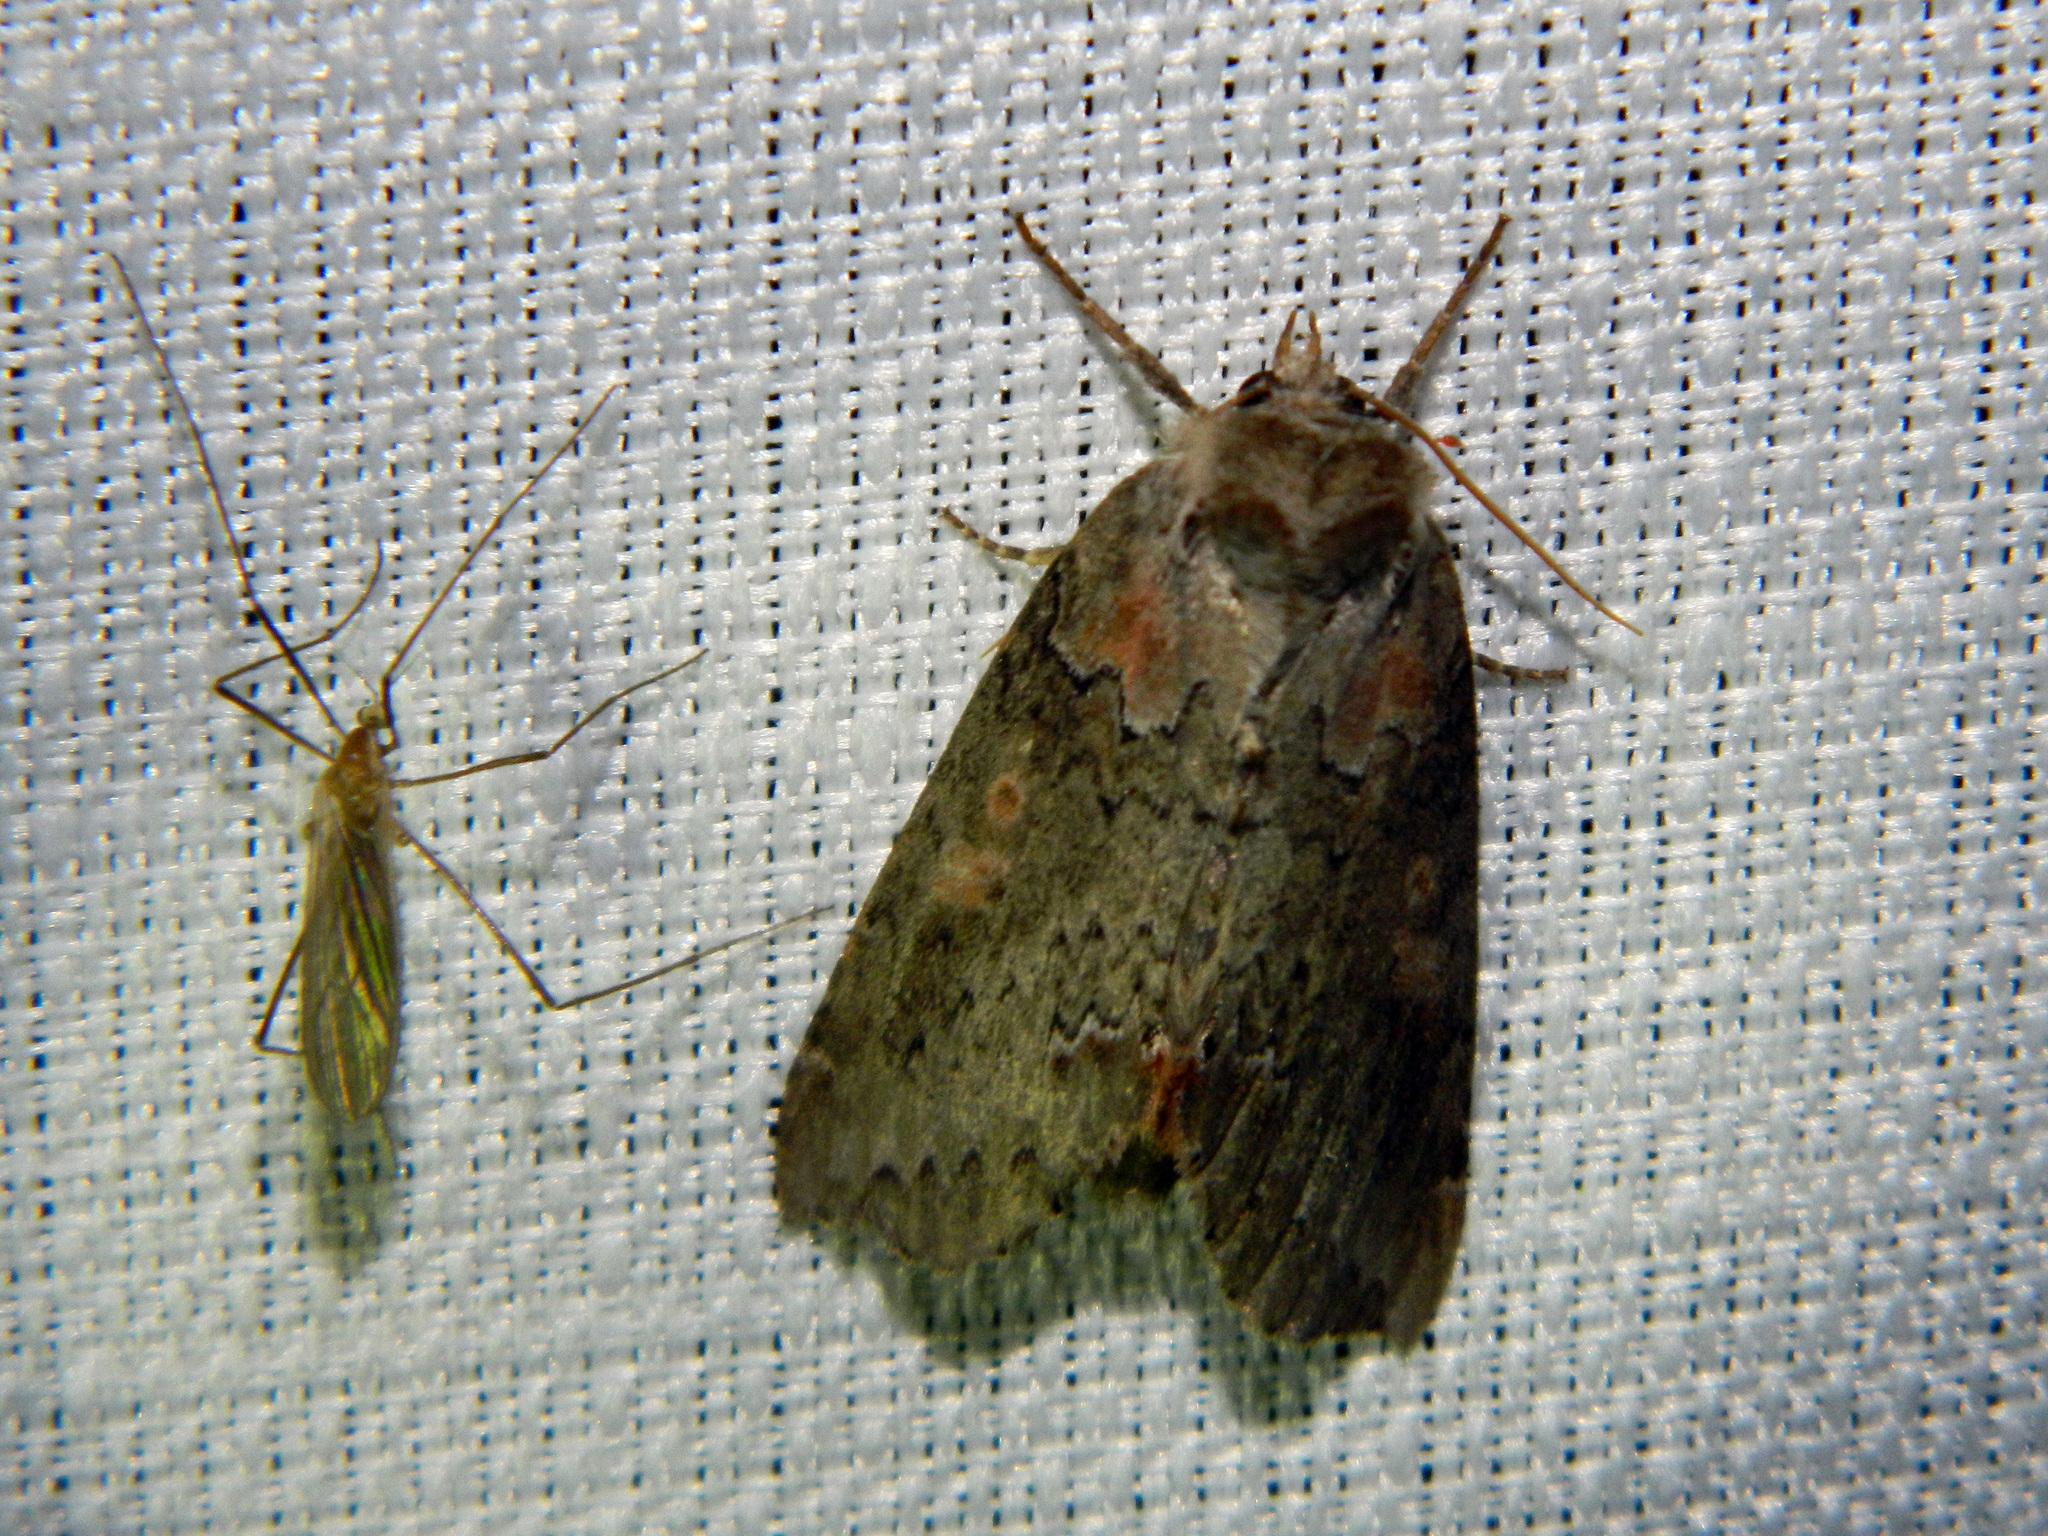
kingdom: Animalia
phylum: Arthropoda
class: Insecta
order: Lepidoptera
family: Drepanidae
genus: Pseudothyatira
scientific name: Pseudothyatira cymatophoroides
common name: Tufted thyatirid moth
